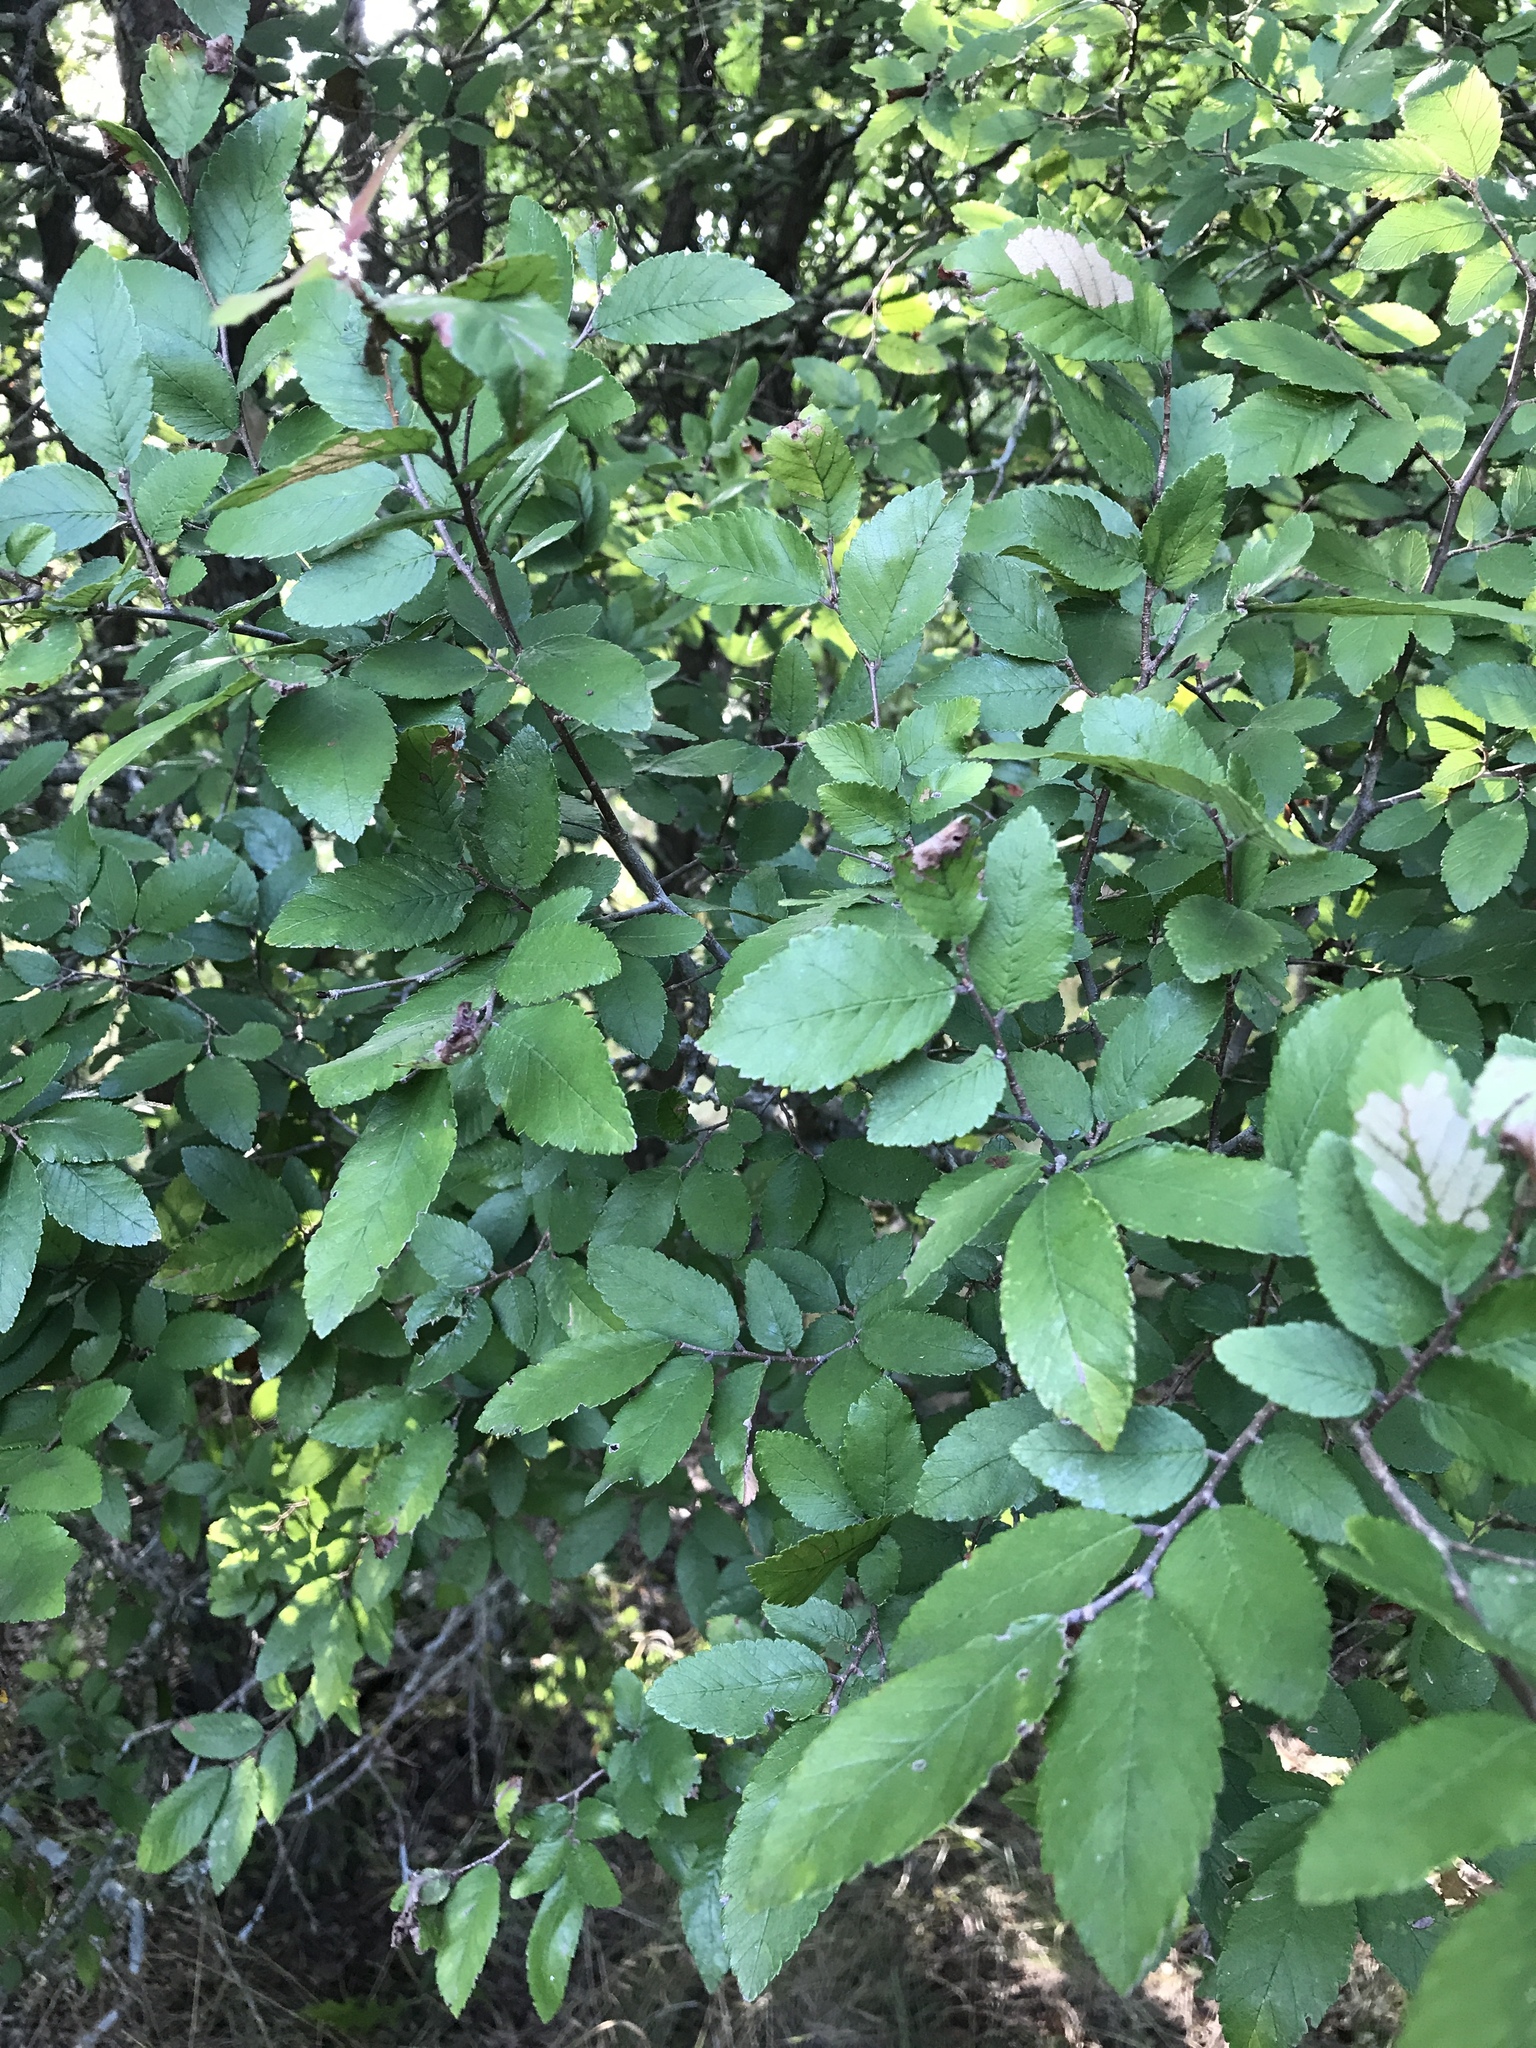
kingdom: Plantae
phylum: Tracheophyta
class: Magnoliopsida
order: Rosales
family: Ulmaceae
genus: Ulmus
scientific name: Ulmus crassifolia
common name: Basket elm
